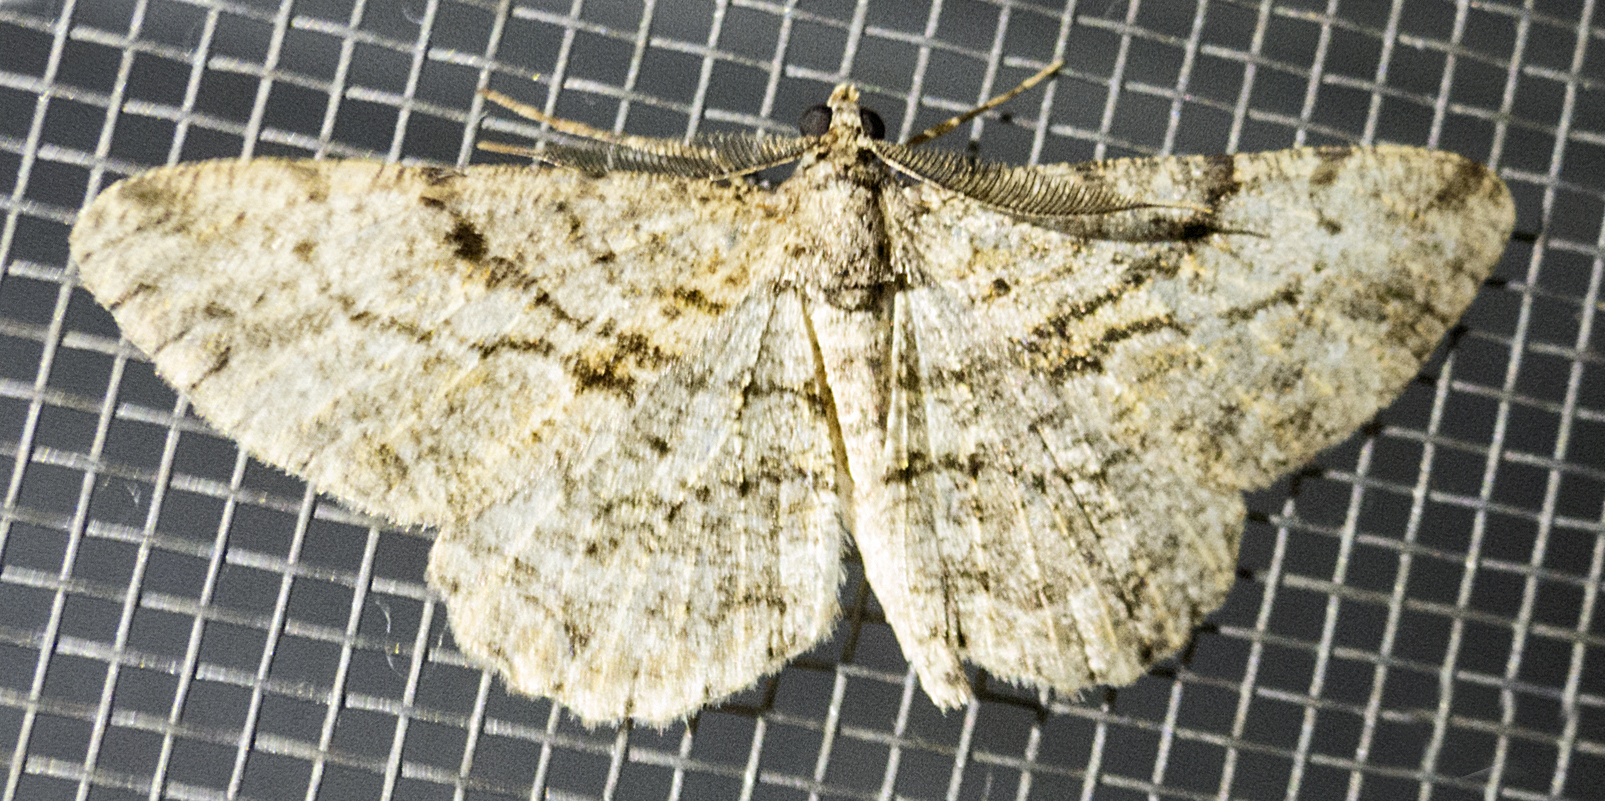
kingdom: Animalia
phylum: Arthropoda
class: Insecta
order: Lepidoptera
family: Geometridae
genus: Peribatodes
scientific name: Peribatodes rhomboidaria
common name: Willow beauty
